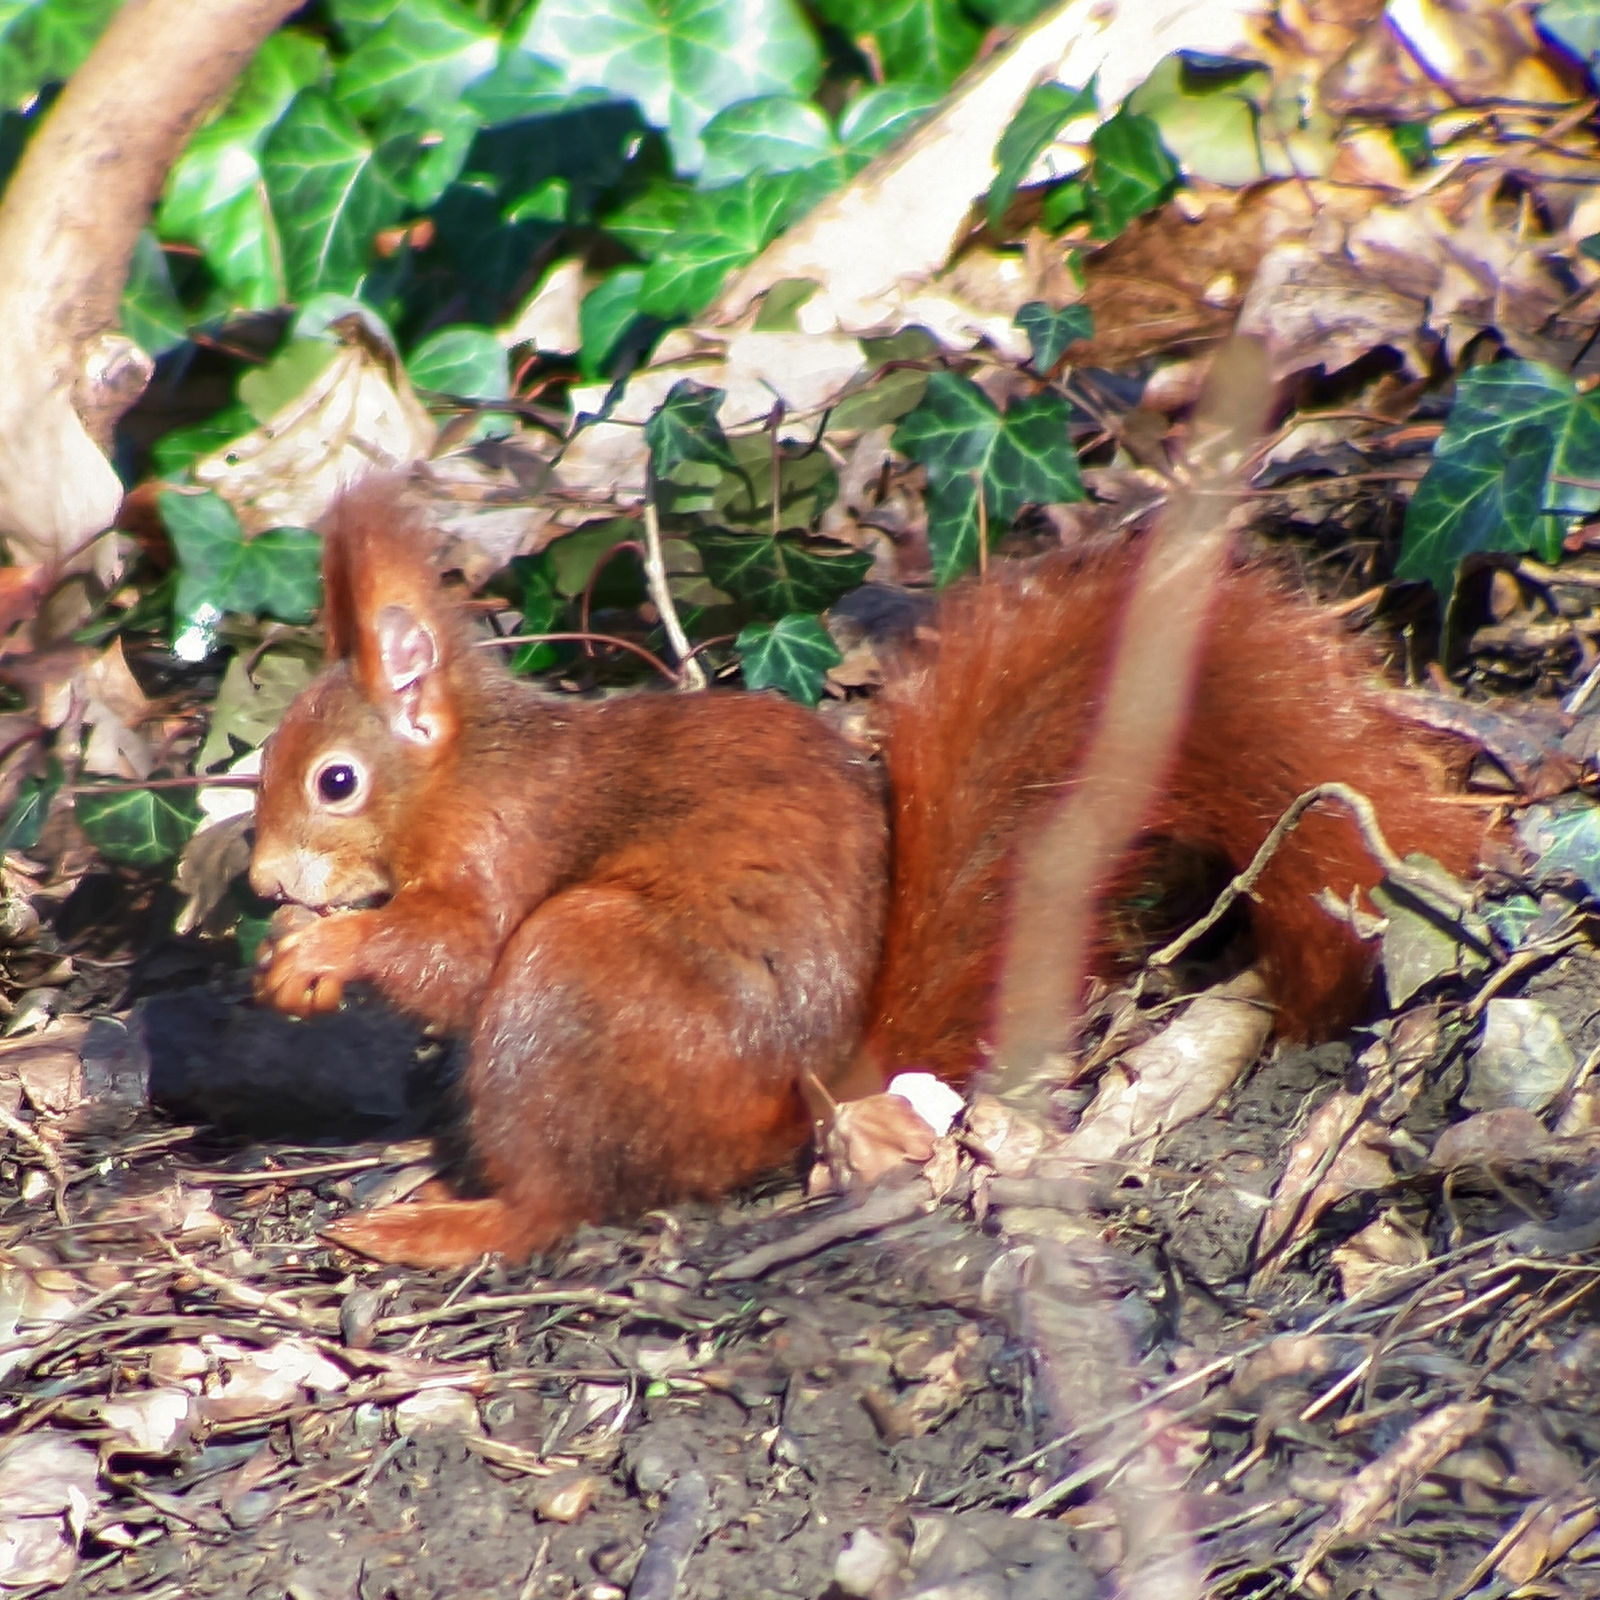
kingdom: Animalia
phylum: Chordata
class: Mammalia
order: Rodentia
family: Sciuridae
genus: Sciurus
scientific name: Sciurus vulgaris
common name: Eurasian red squirrel
